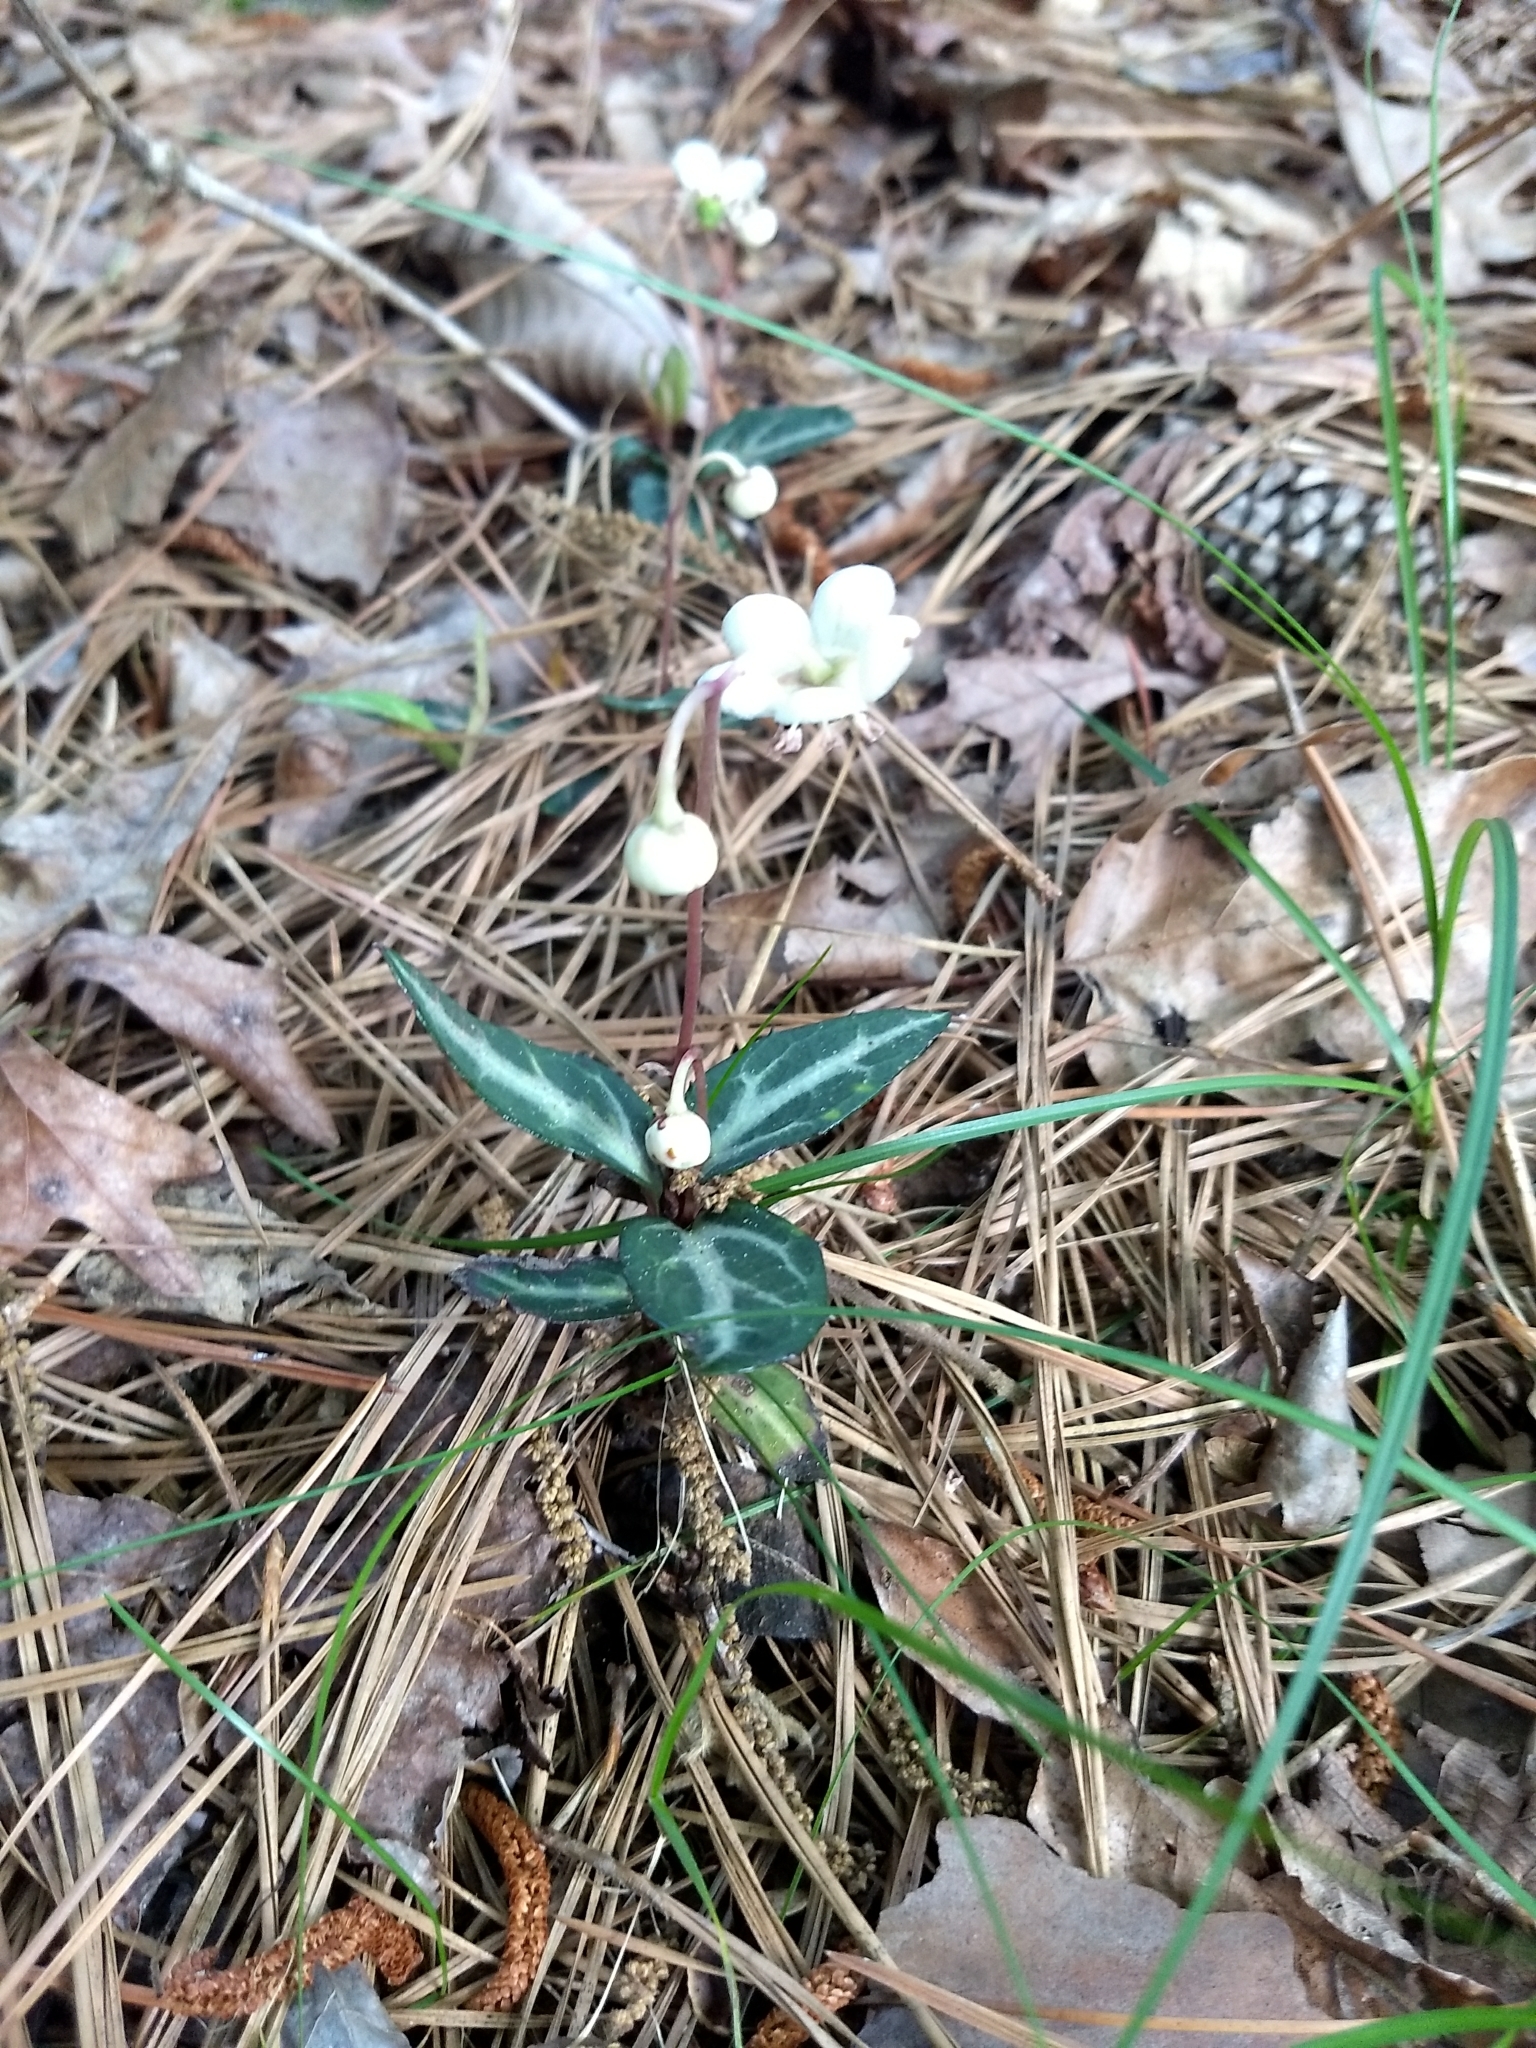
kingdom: Plantae
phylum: Tracheophyta
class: Magnoliopsida
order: Ericales
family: Ericaceae
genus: Chimaphila
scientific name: Chimaphila maculata
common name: Spotted pipsissewa
